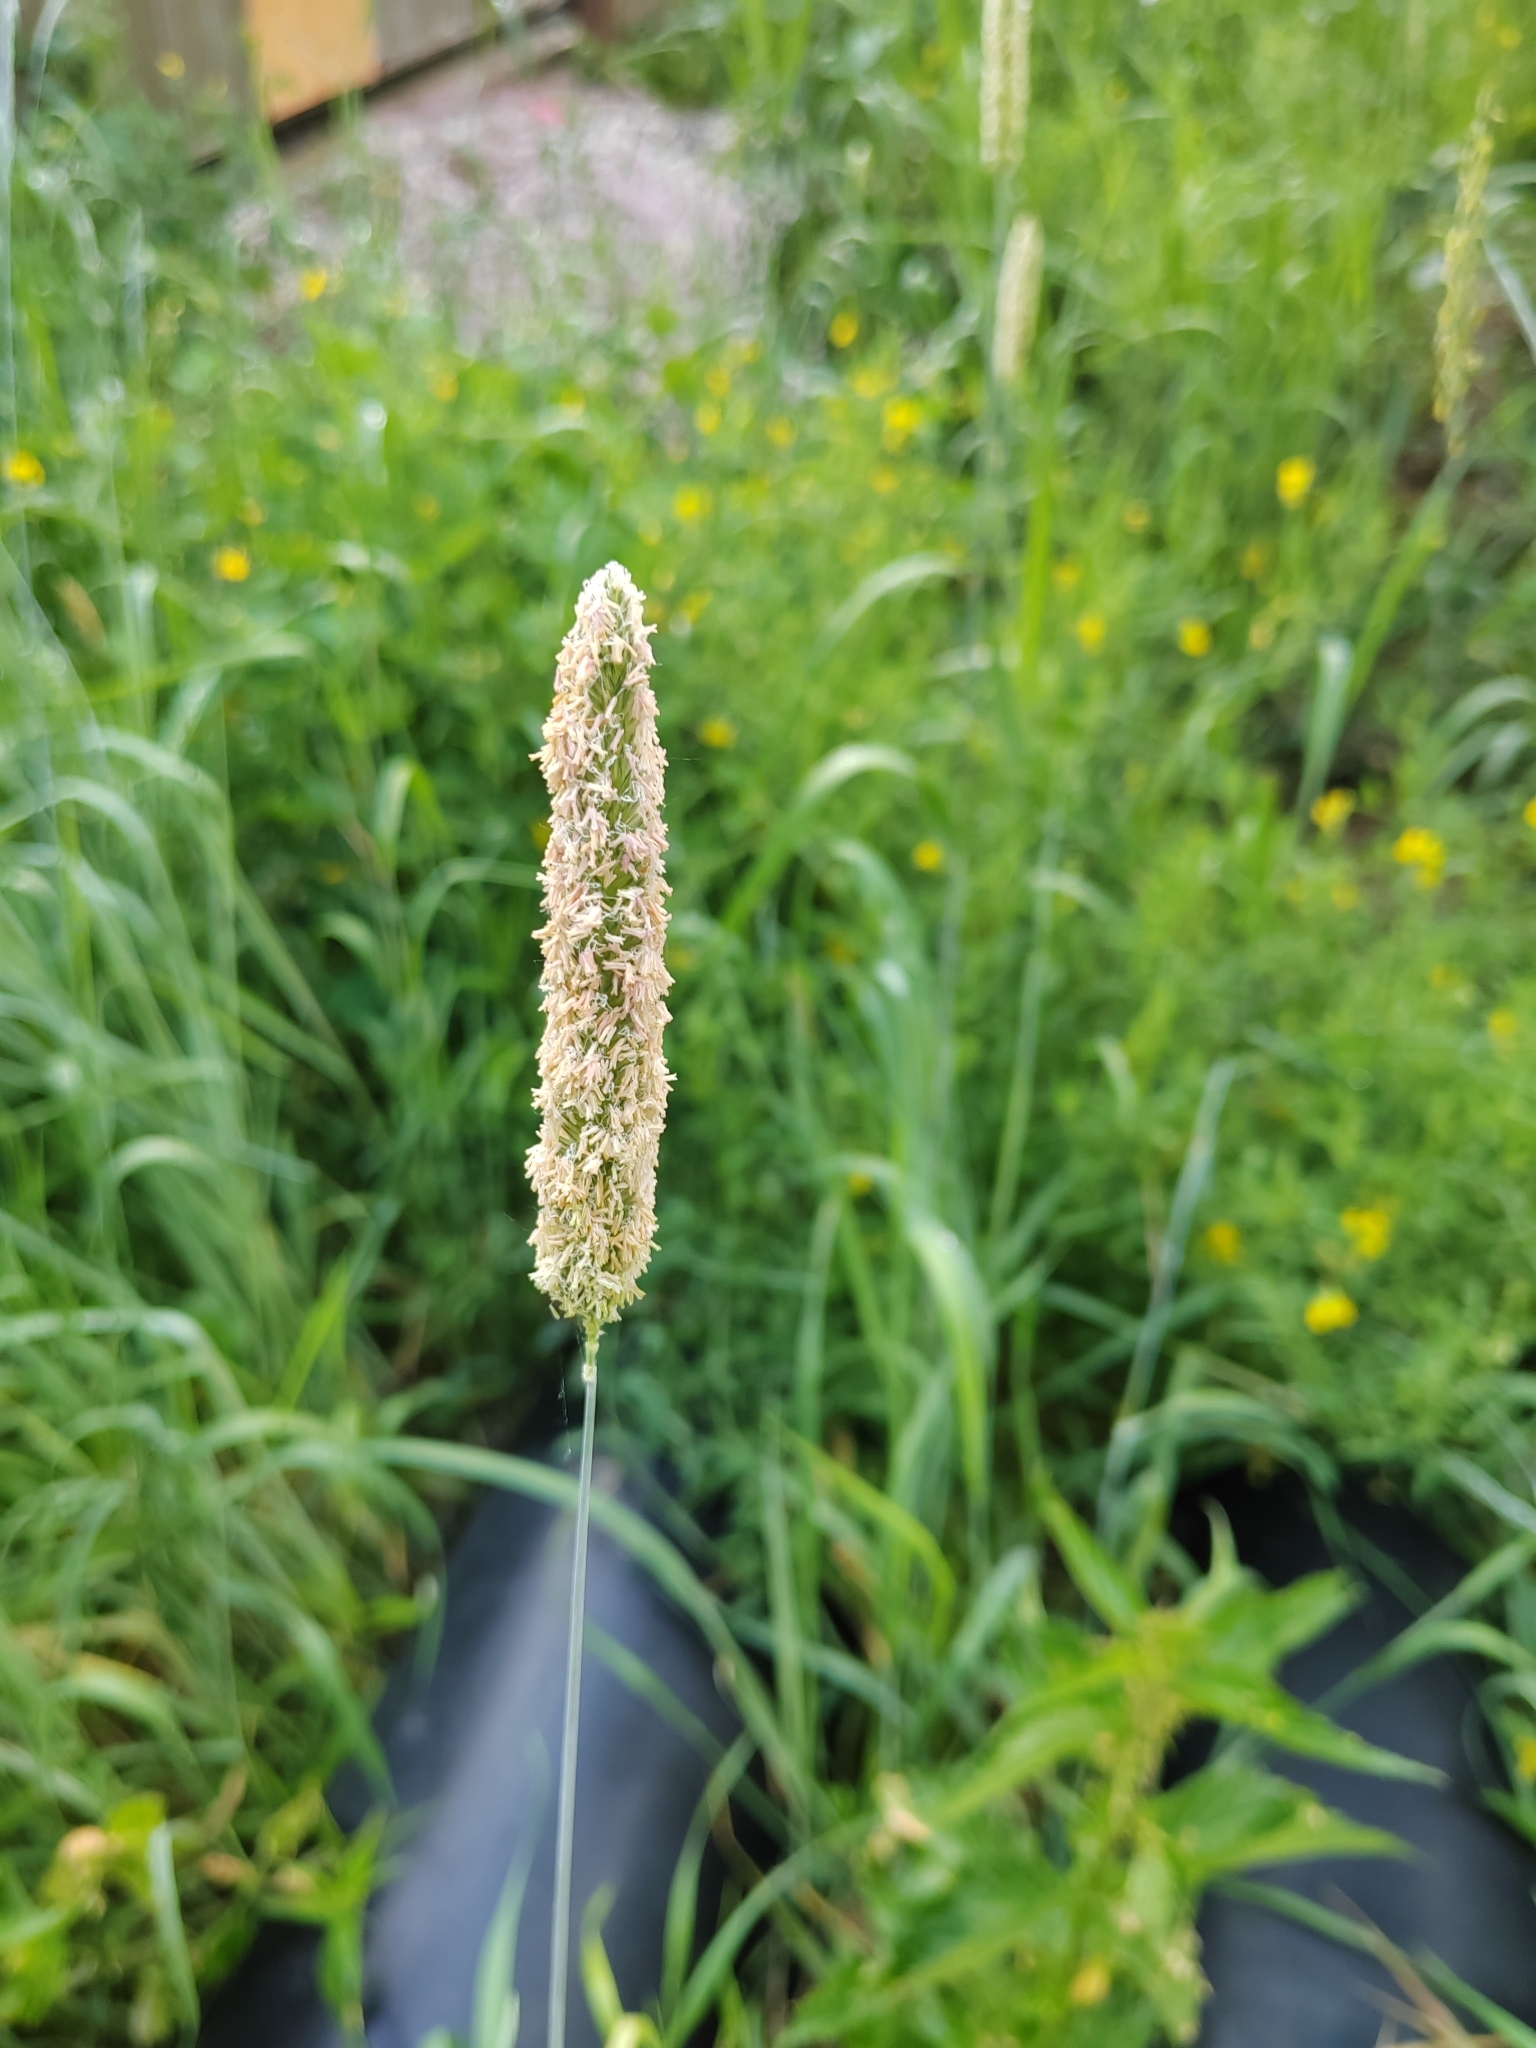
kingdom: Plantae
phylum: Tracheophyta
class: Liliopsida
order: Poales
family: Poaceae
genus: Phleum
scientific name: Phleum pratense
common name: Timothy grass
